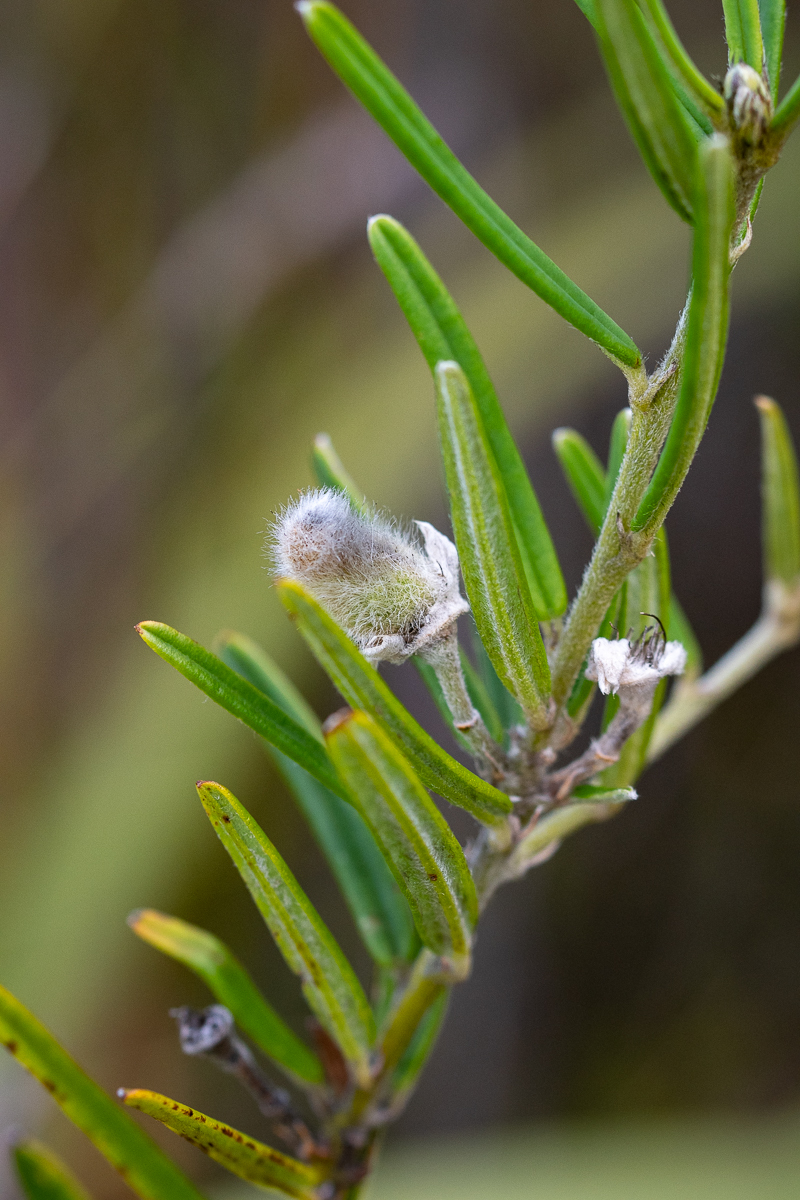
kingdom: Plantae
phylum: Tracheophyta
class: Magnoliopsida
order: Fabales
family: Fabaceae
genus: Podalyria
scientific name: Podalyria oleifolia
